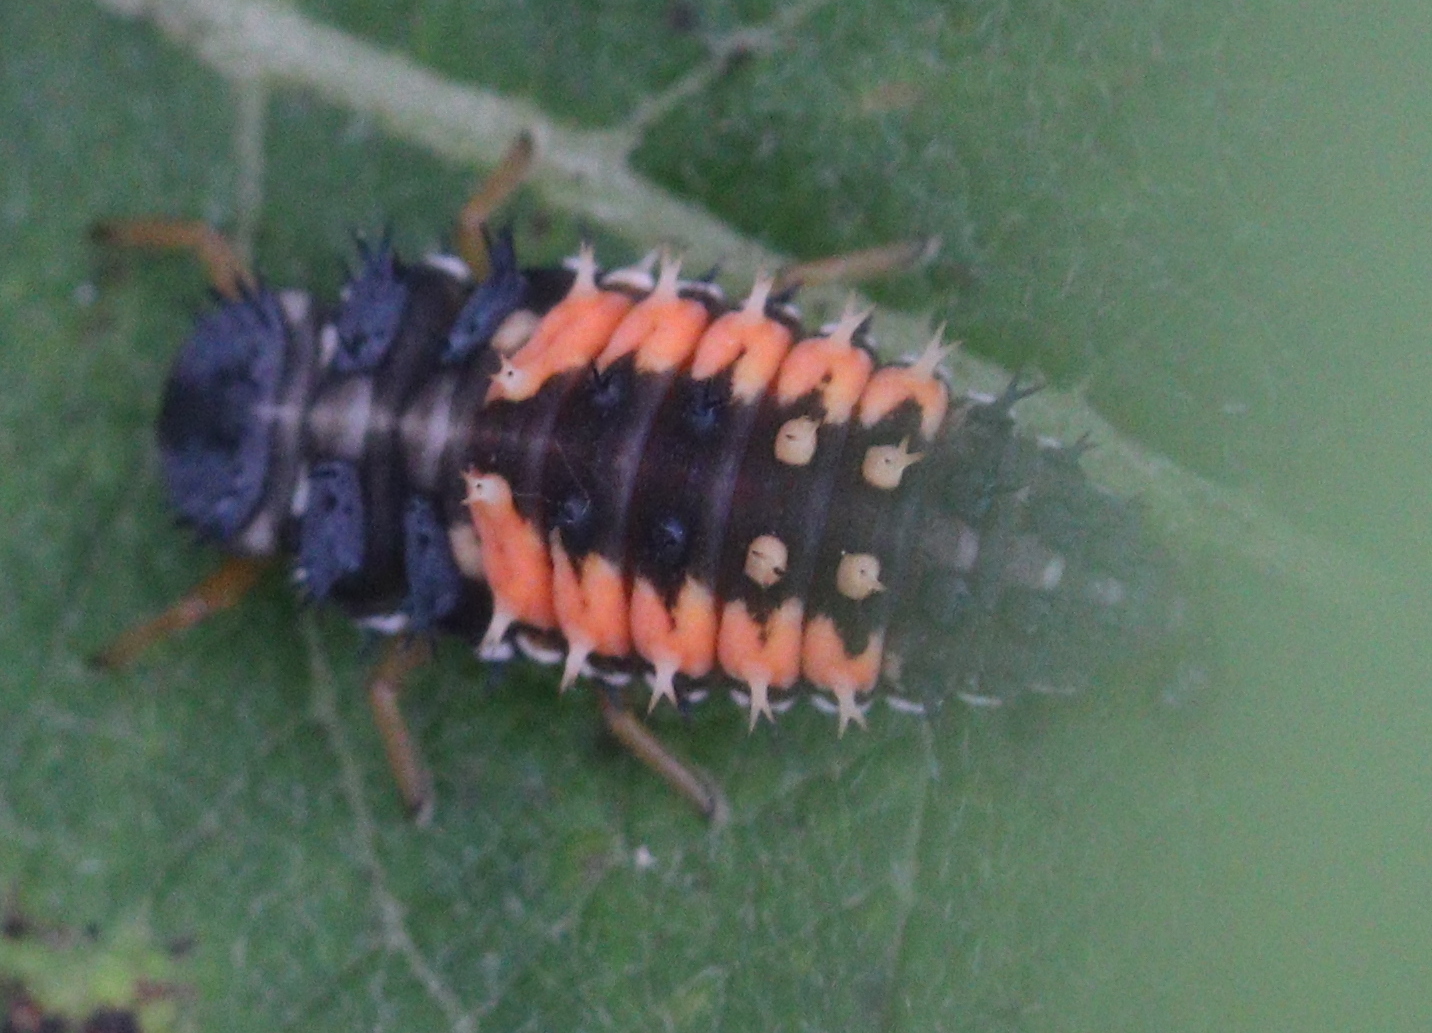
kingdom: Animalia
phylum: Arthropoda
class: Insecta
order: Coleoptera
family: Coccinellidae
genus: Harmonia
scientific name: Harmonia axyridis
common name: Harlequin ladybird
